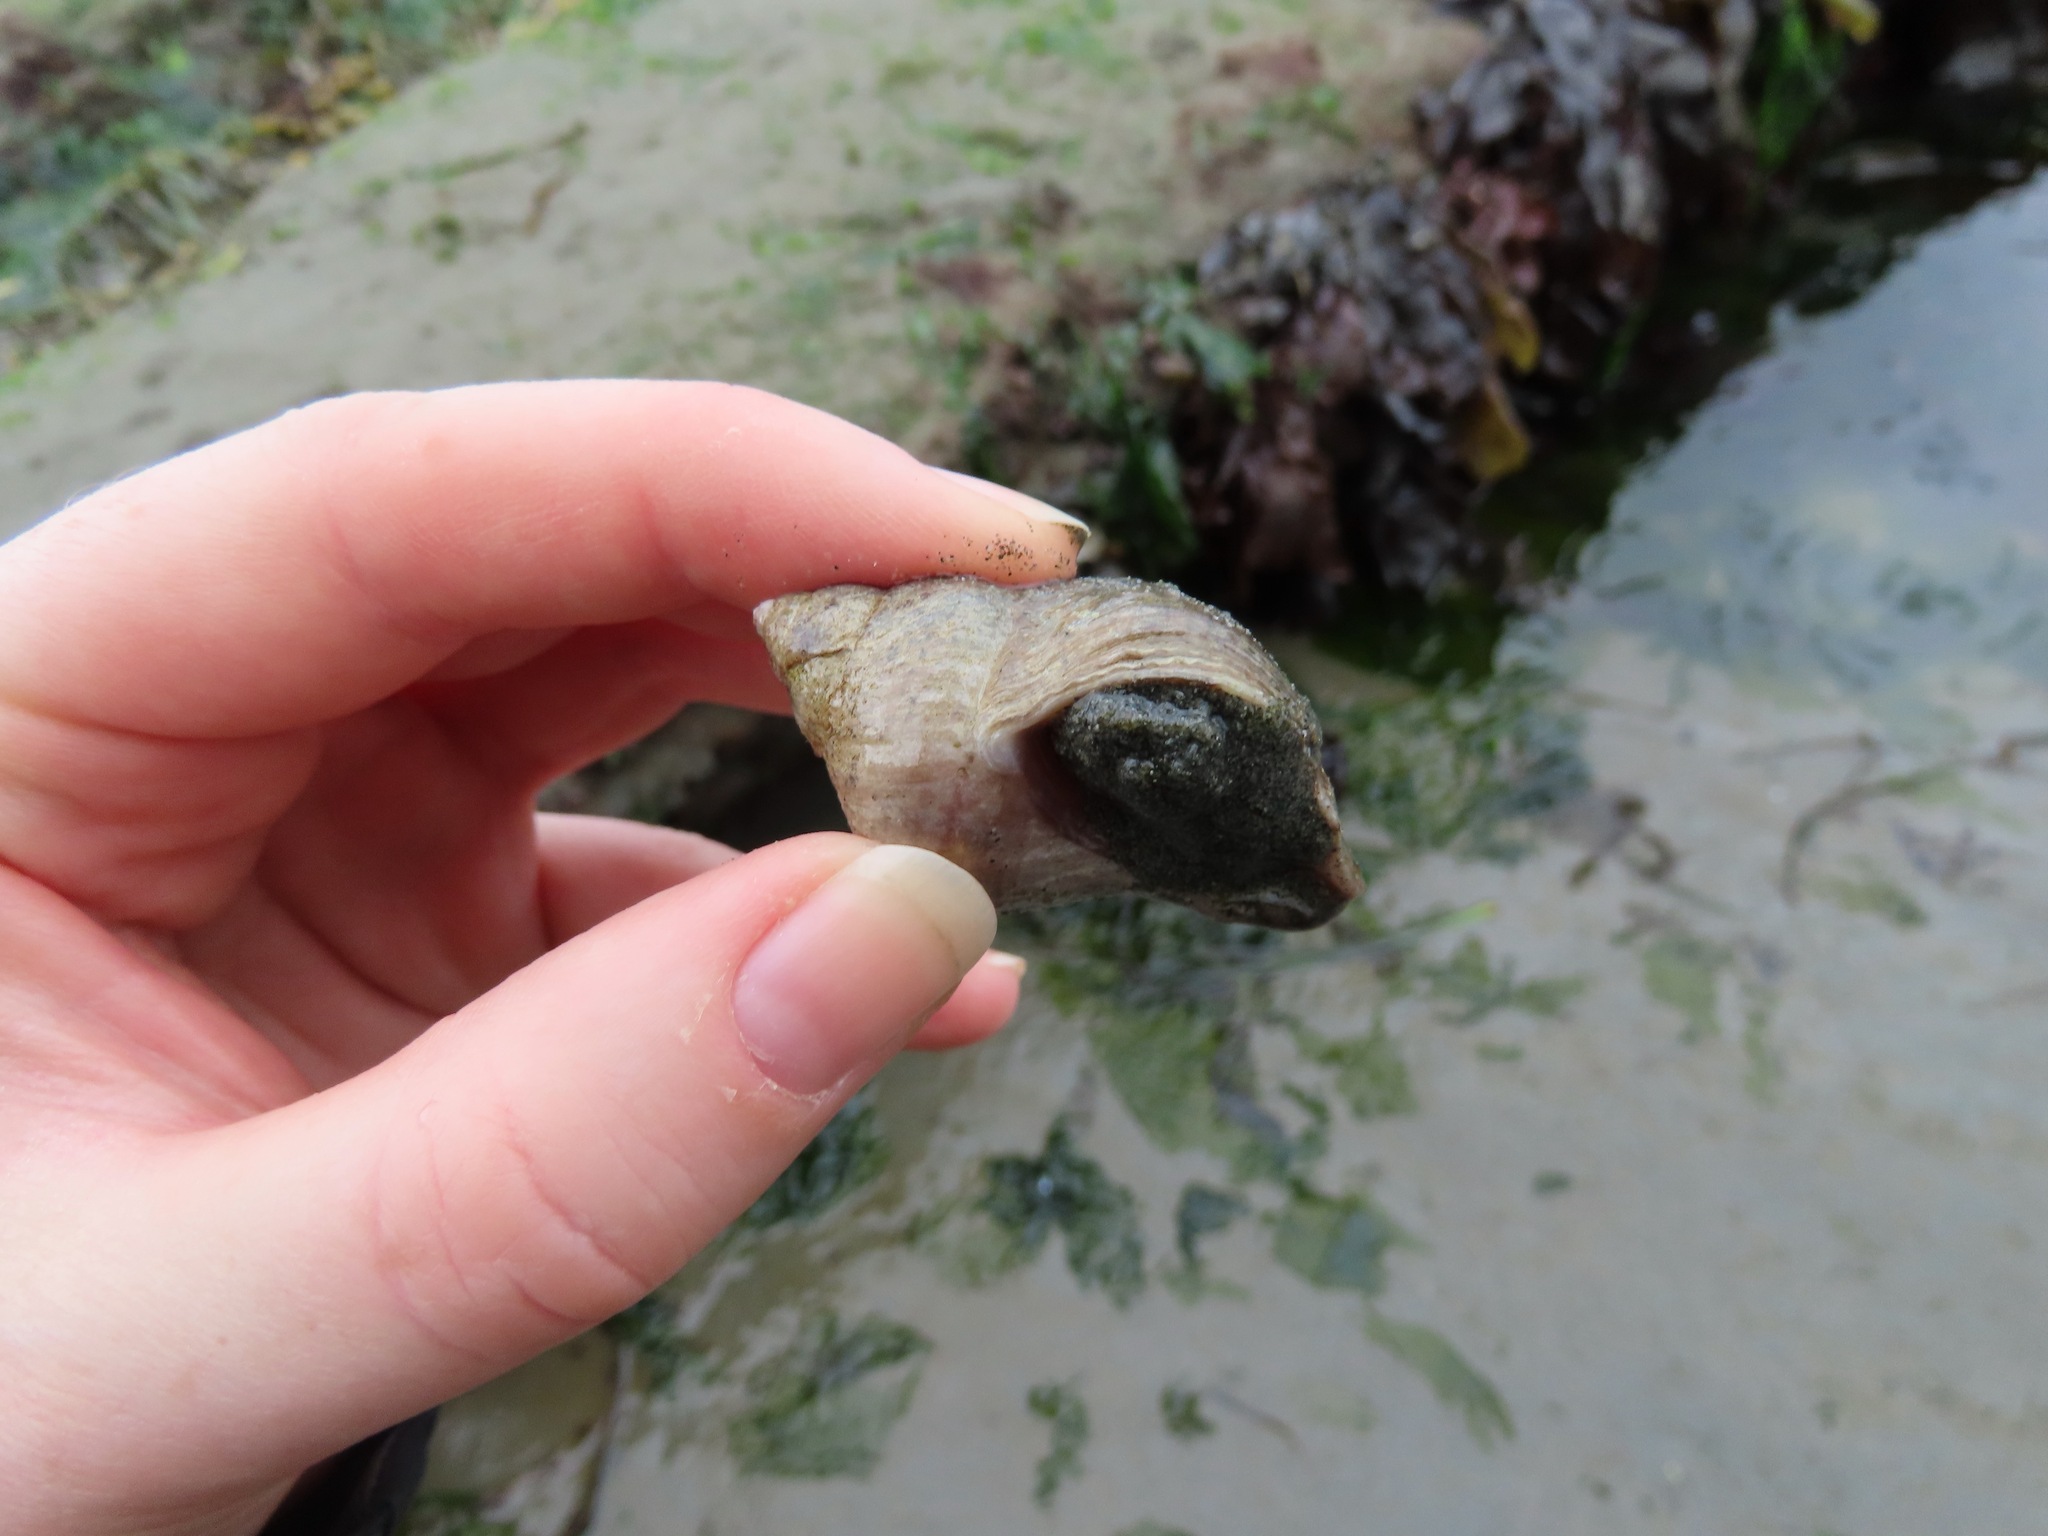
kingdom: Animalia
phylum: Mollusca
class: Gastropoda
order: Neogastropoda
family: Muricidae
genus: Nucella
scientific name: Nucella lamellosa
